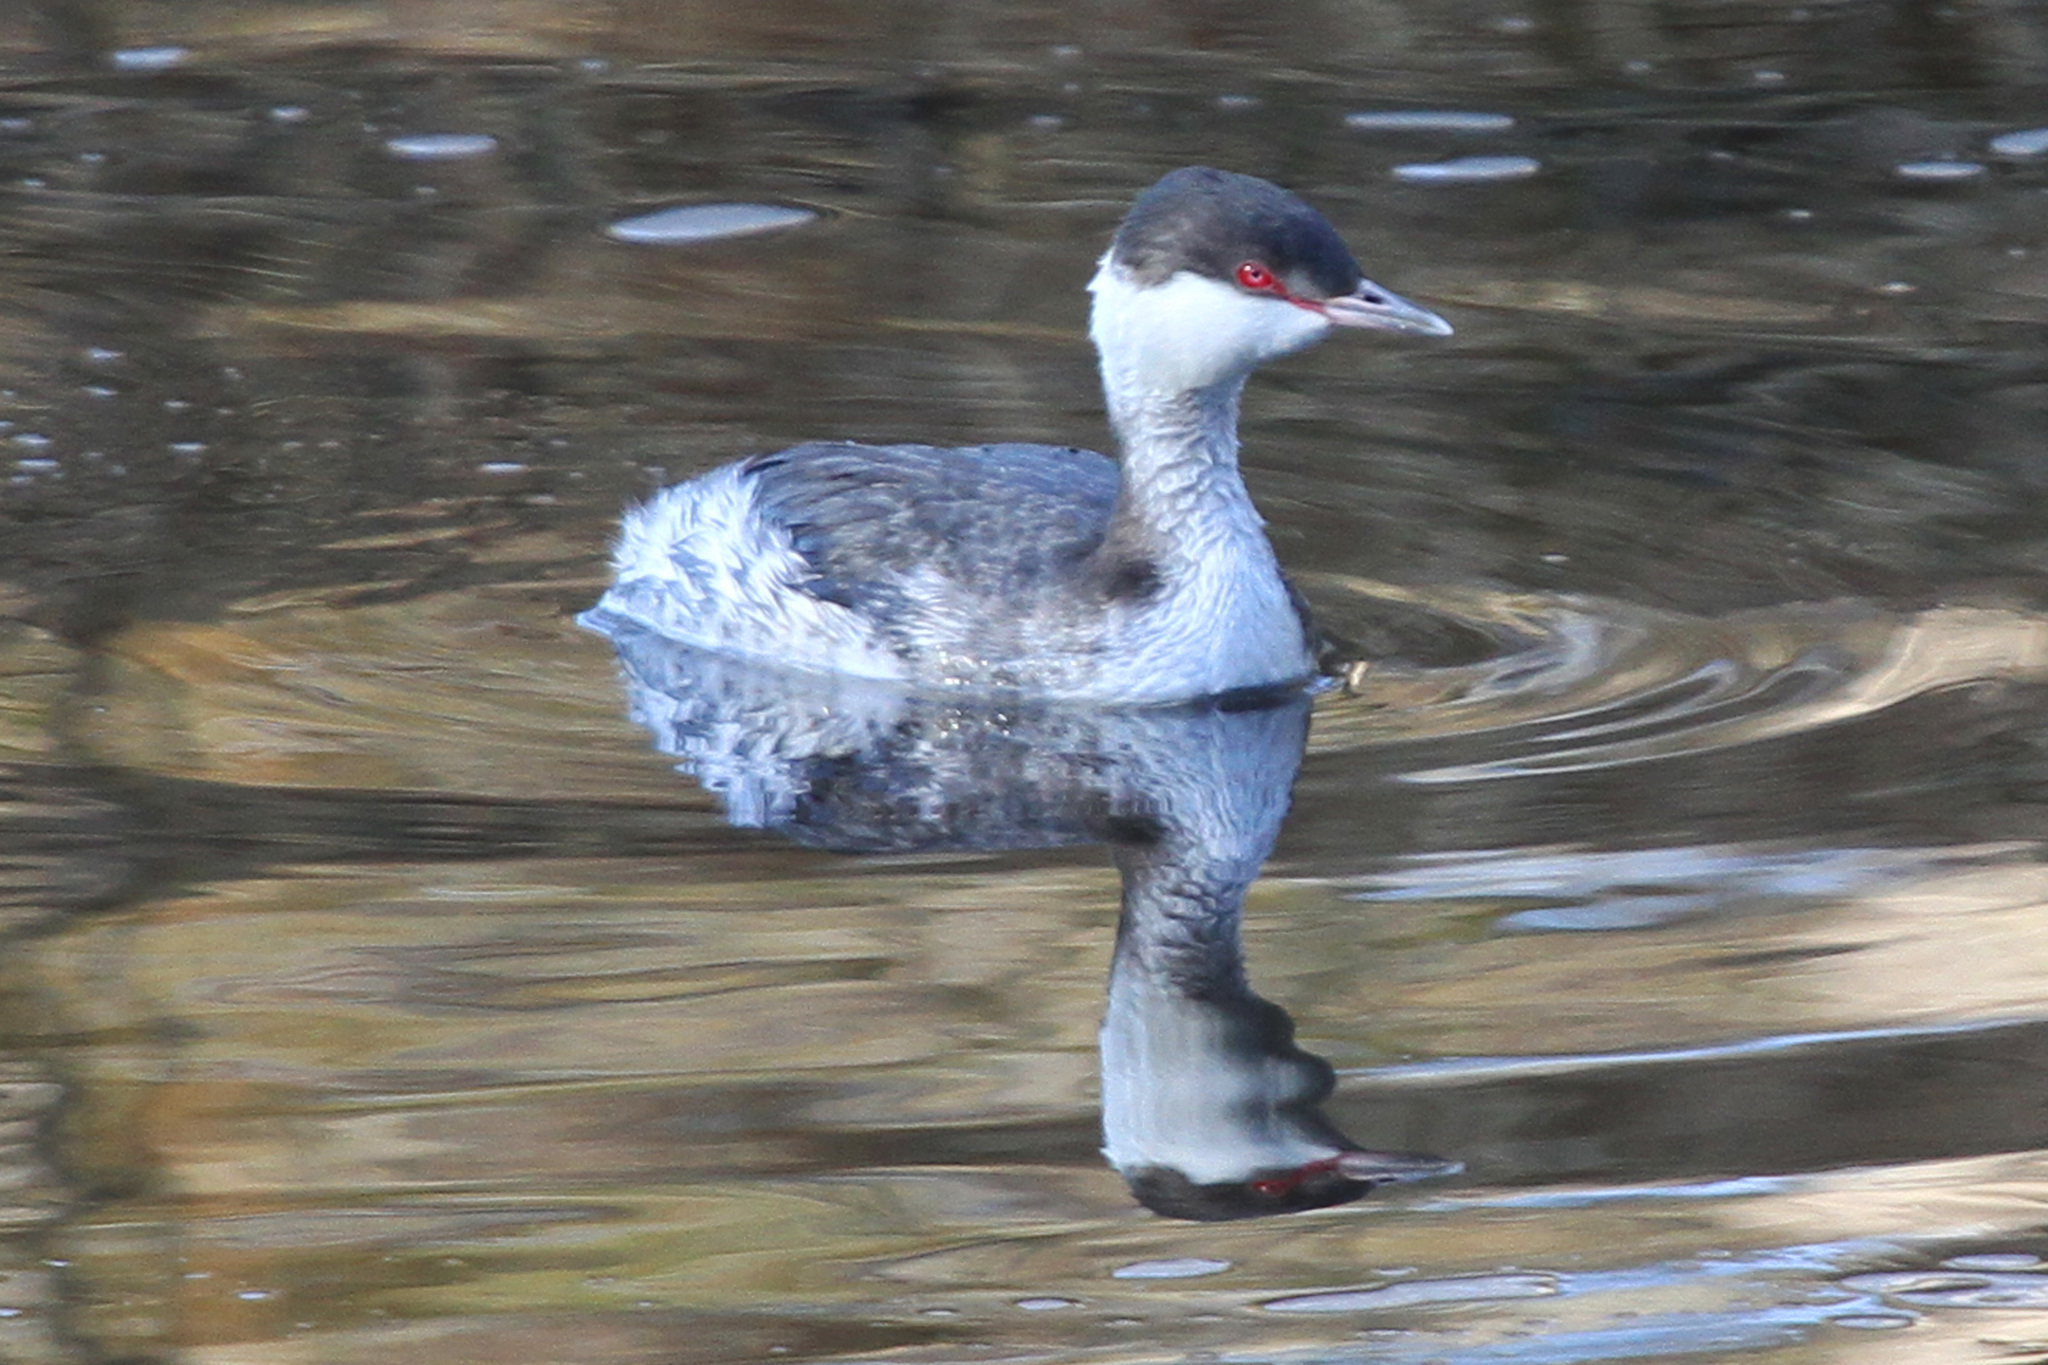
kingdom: Animalia
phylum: Chordata
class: Aves
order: Podicipediformes
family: Podicipedidae
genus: Podiceps
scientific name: Podiceps auritus
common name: Horned grebe
